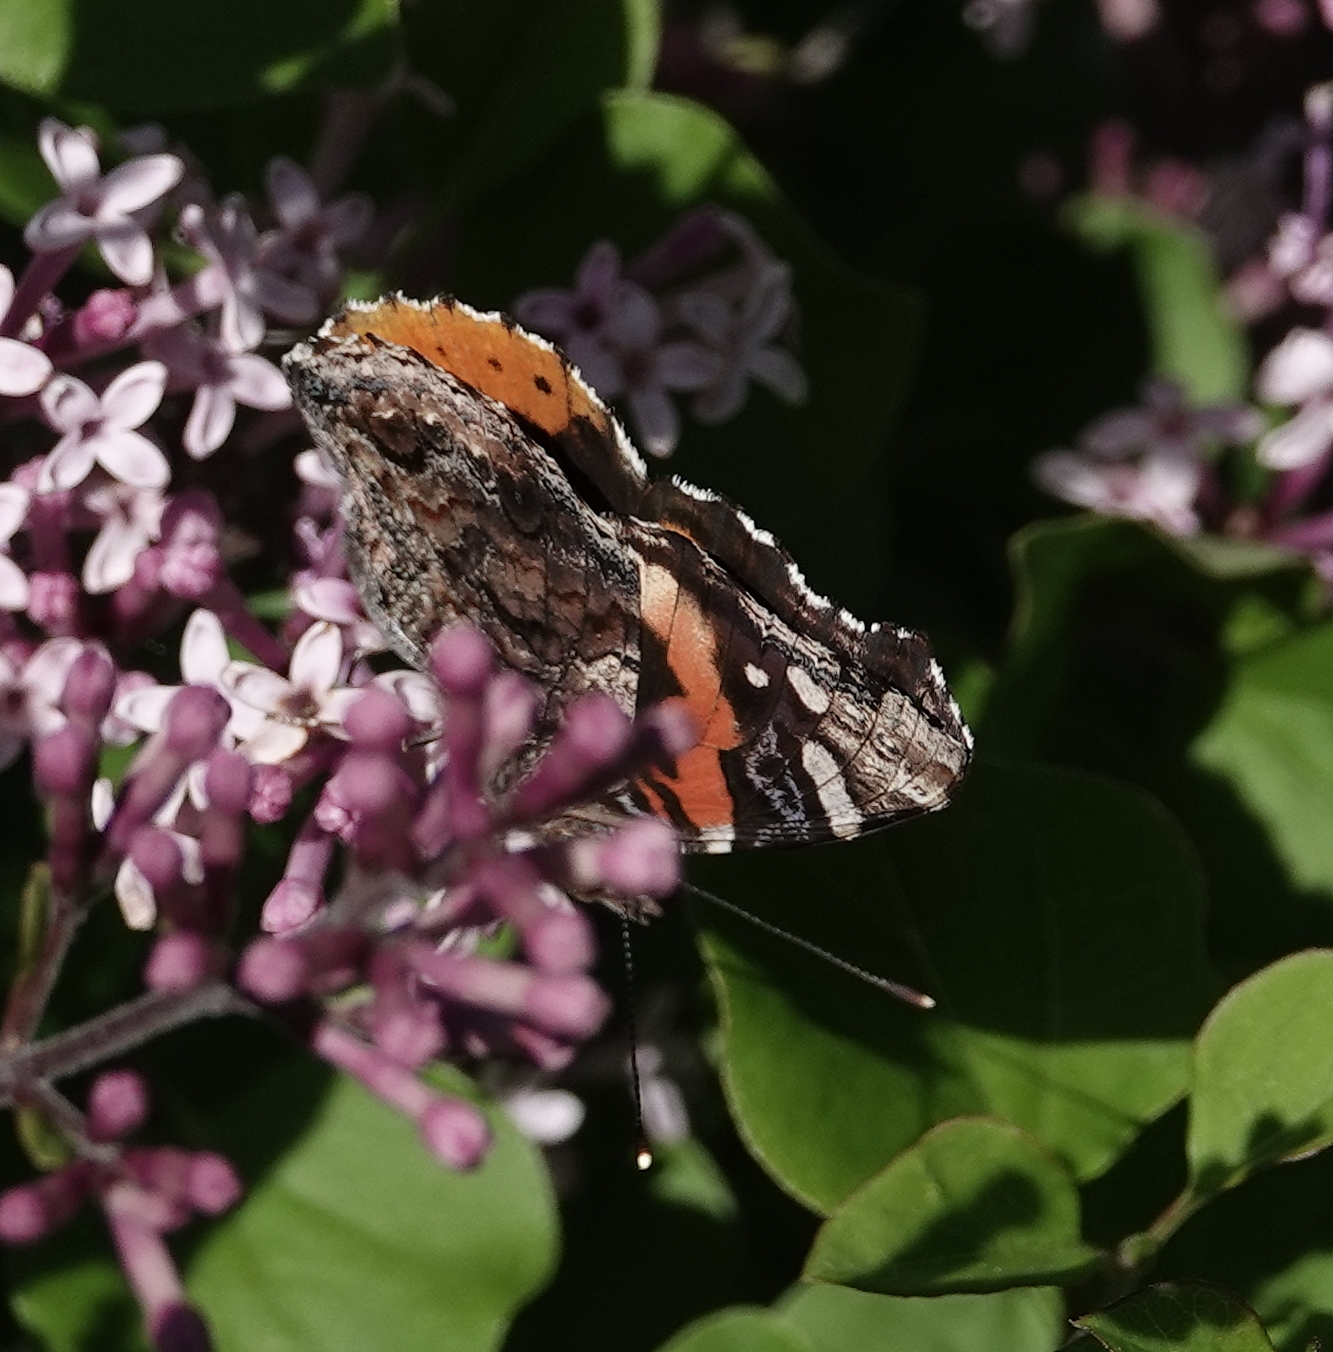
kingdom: Animalia
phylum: Arthropoda
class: Insecta
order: Lepidoptera
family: Nymphalidae
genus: Vanessa
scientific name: Vanessa atalanta
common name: Red admiral
